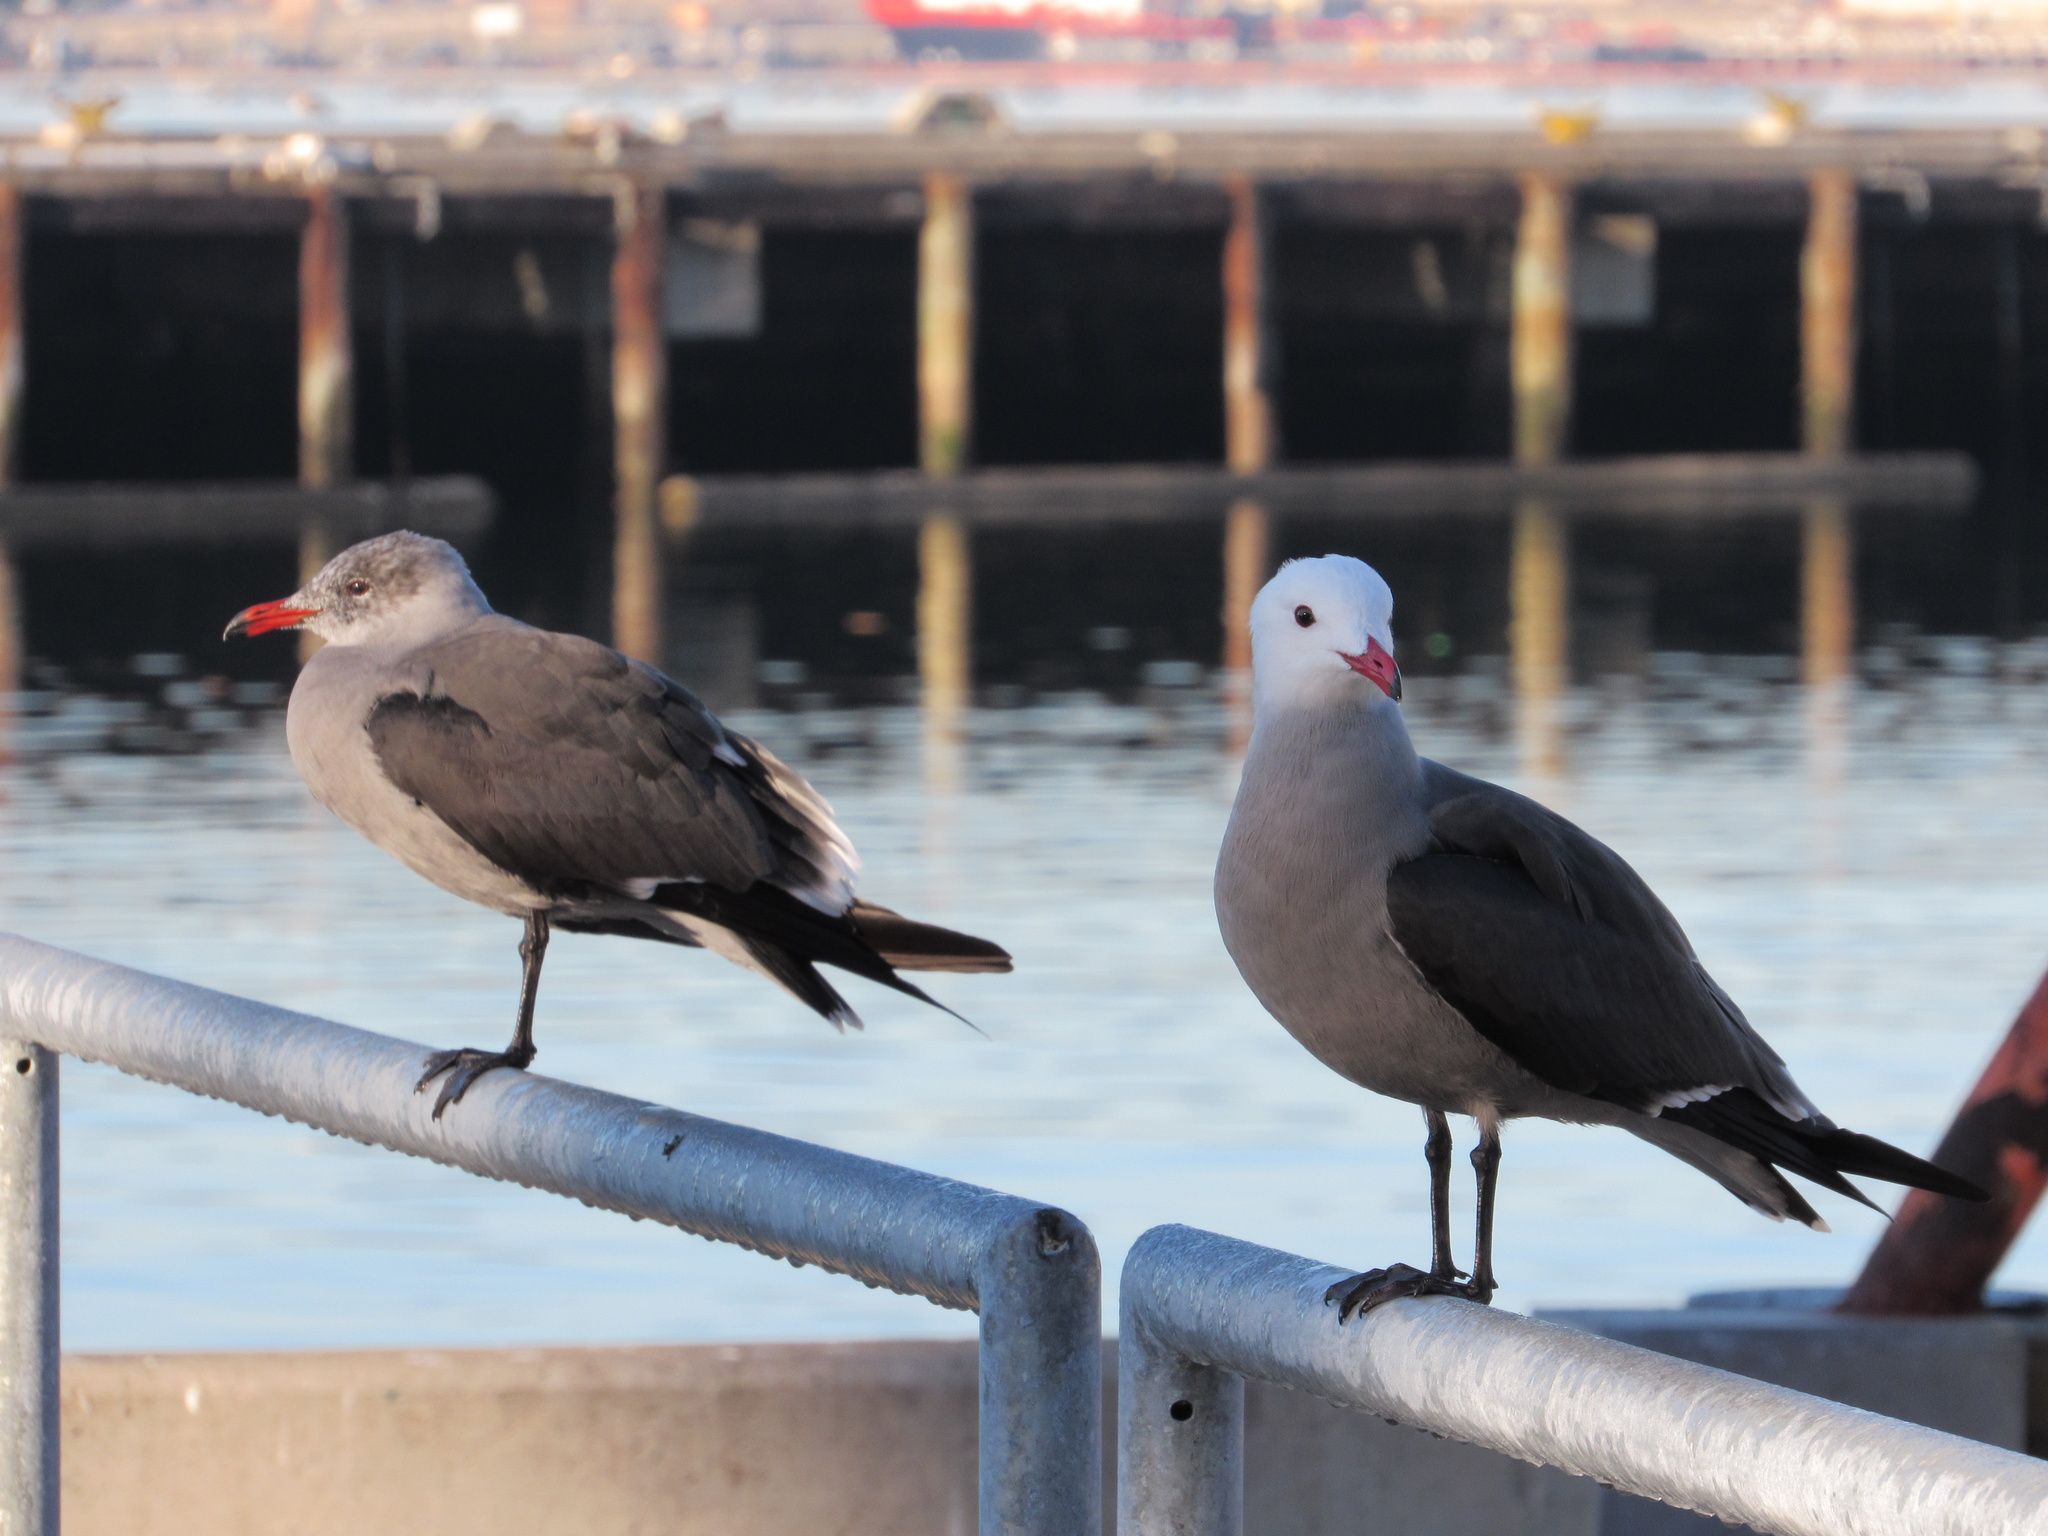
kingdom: Animalia
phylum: Chordata
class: Aves
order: Charadriiformes
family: Laridae
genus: Larus
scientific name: Larus heermanni
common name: Heermann's gull
